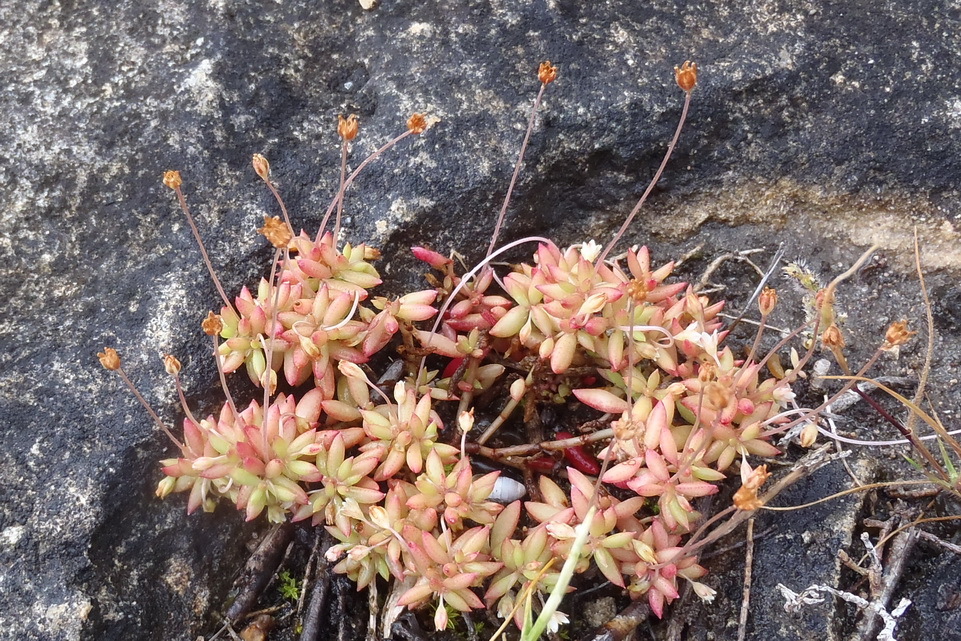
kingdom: Plantae
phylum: Tracheophyta
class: Magnoliopsida
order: Saxifragales
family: Crassulaceae
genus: Crassula
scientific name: Crassula expansa
